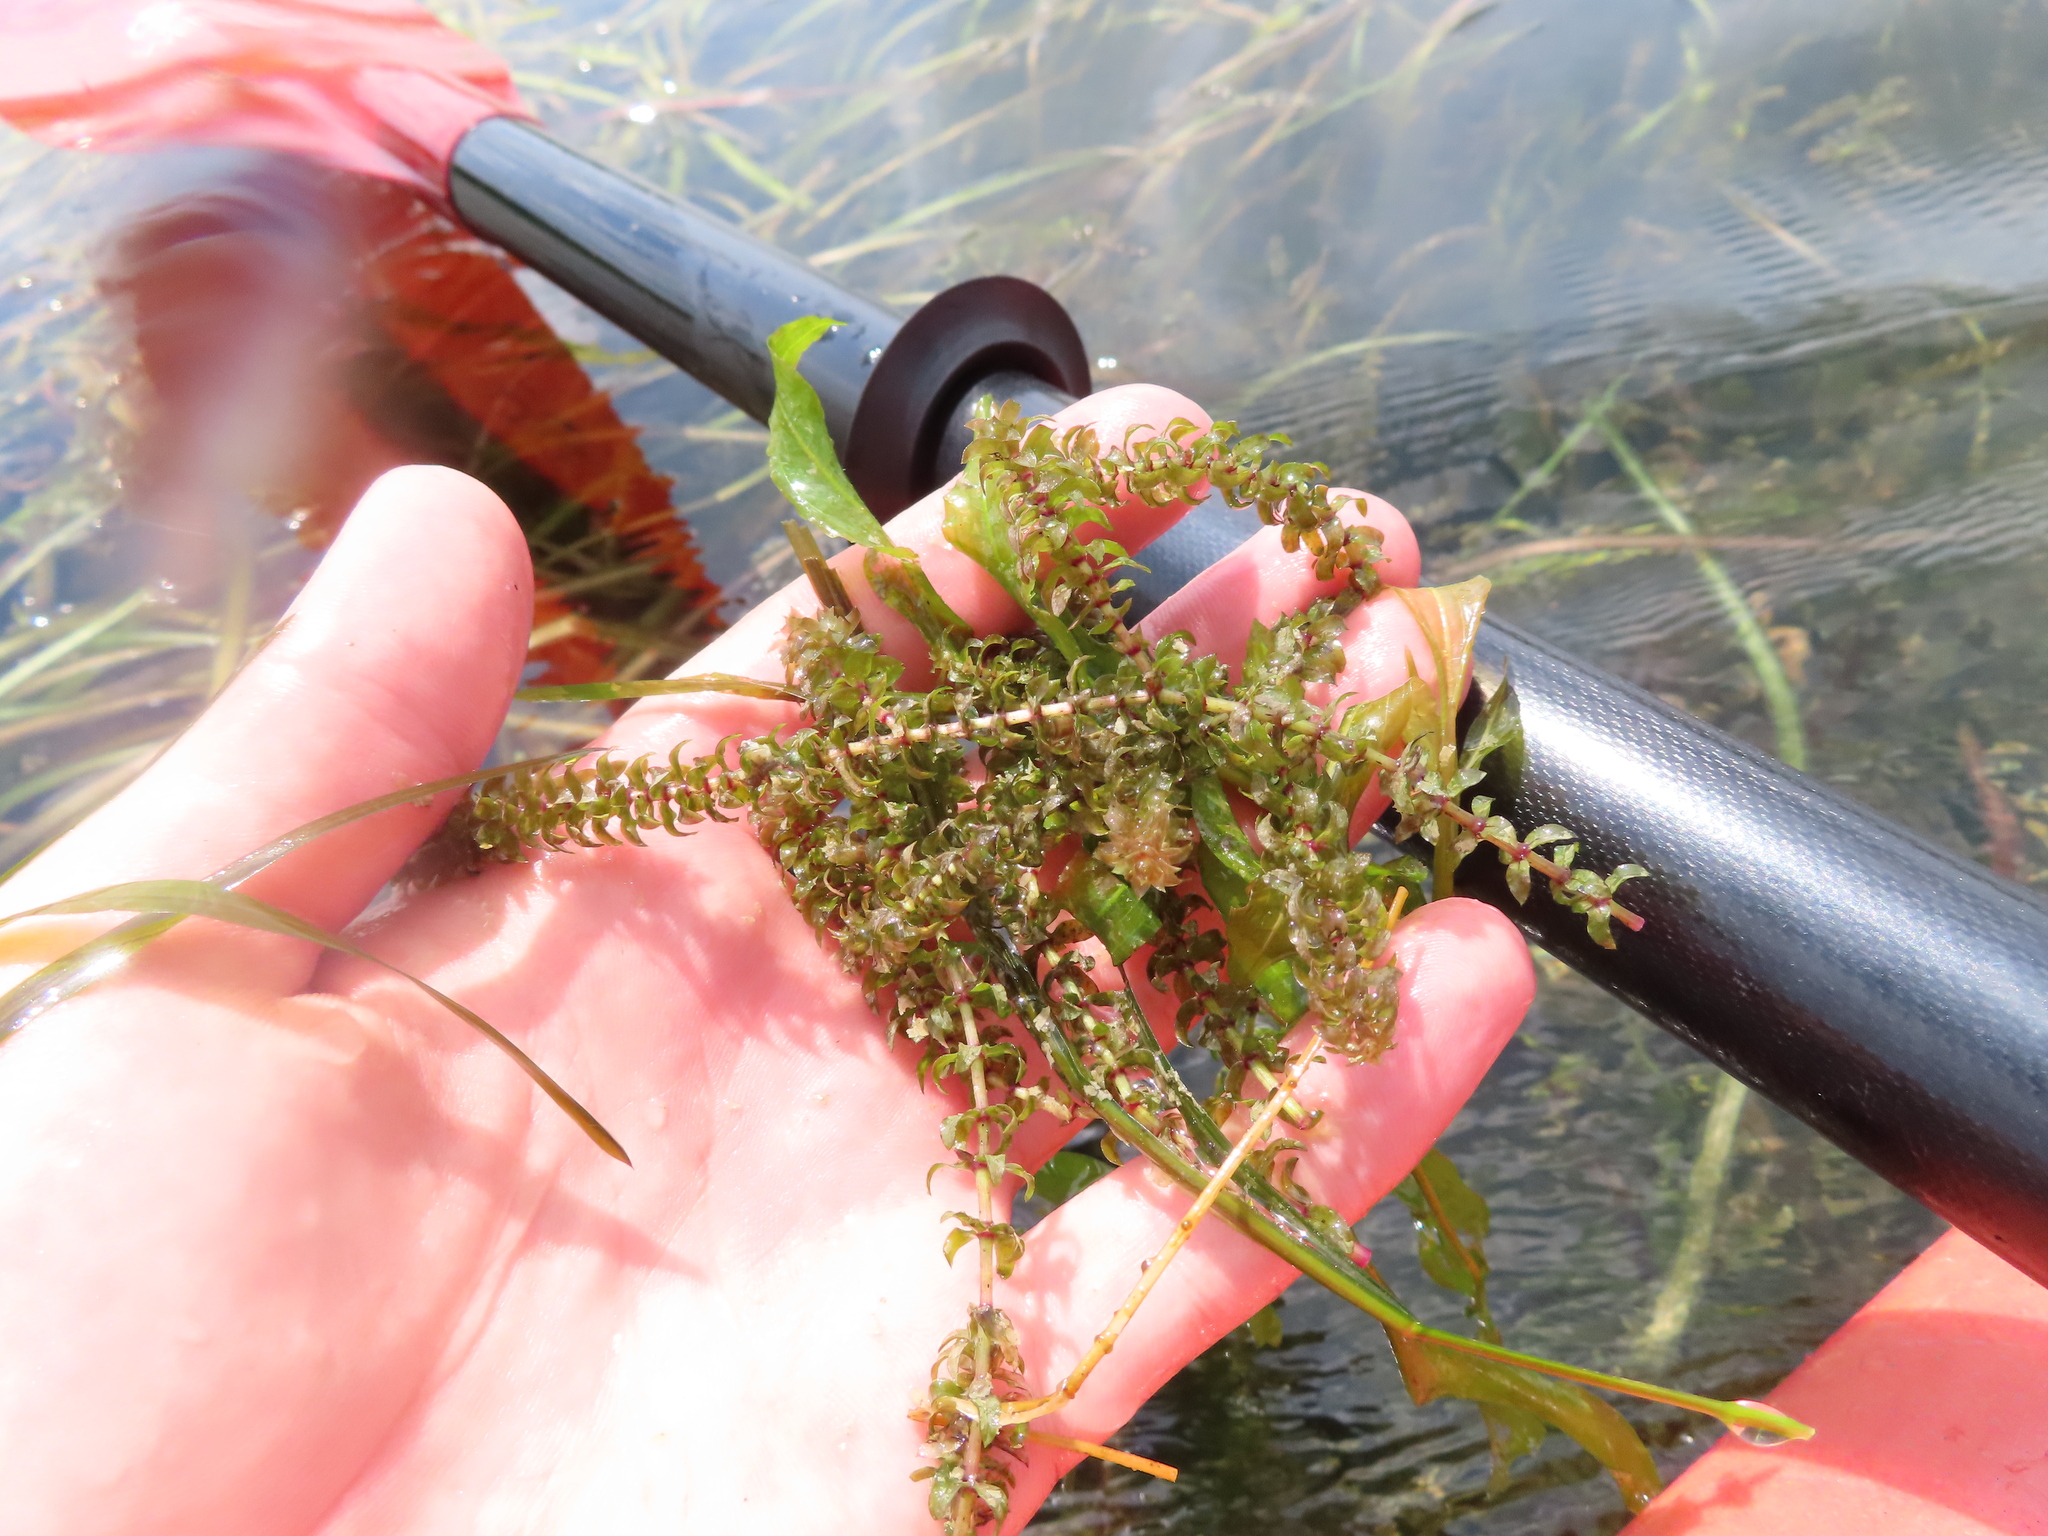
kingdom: Plantae
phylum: Tracheophyta
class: Liliopsida
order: Alismatales
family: Hydrocharitaceae
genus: Elodea
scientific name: Elodea canadensis
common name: Canadian waterweed
